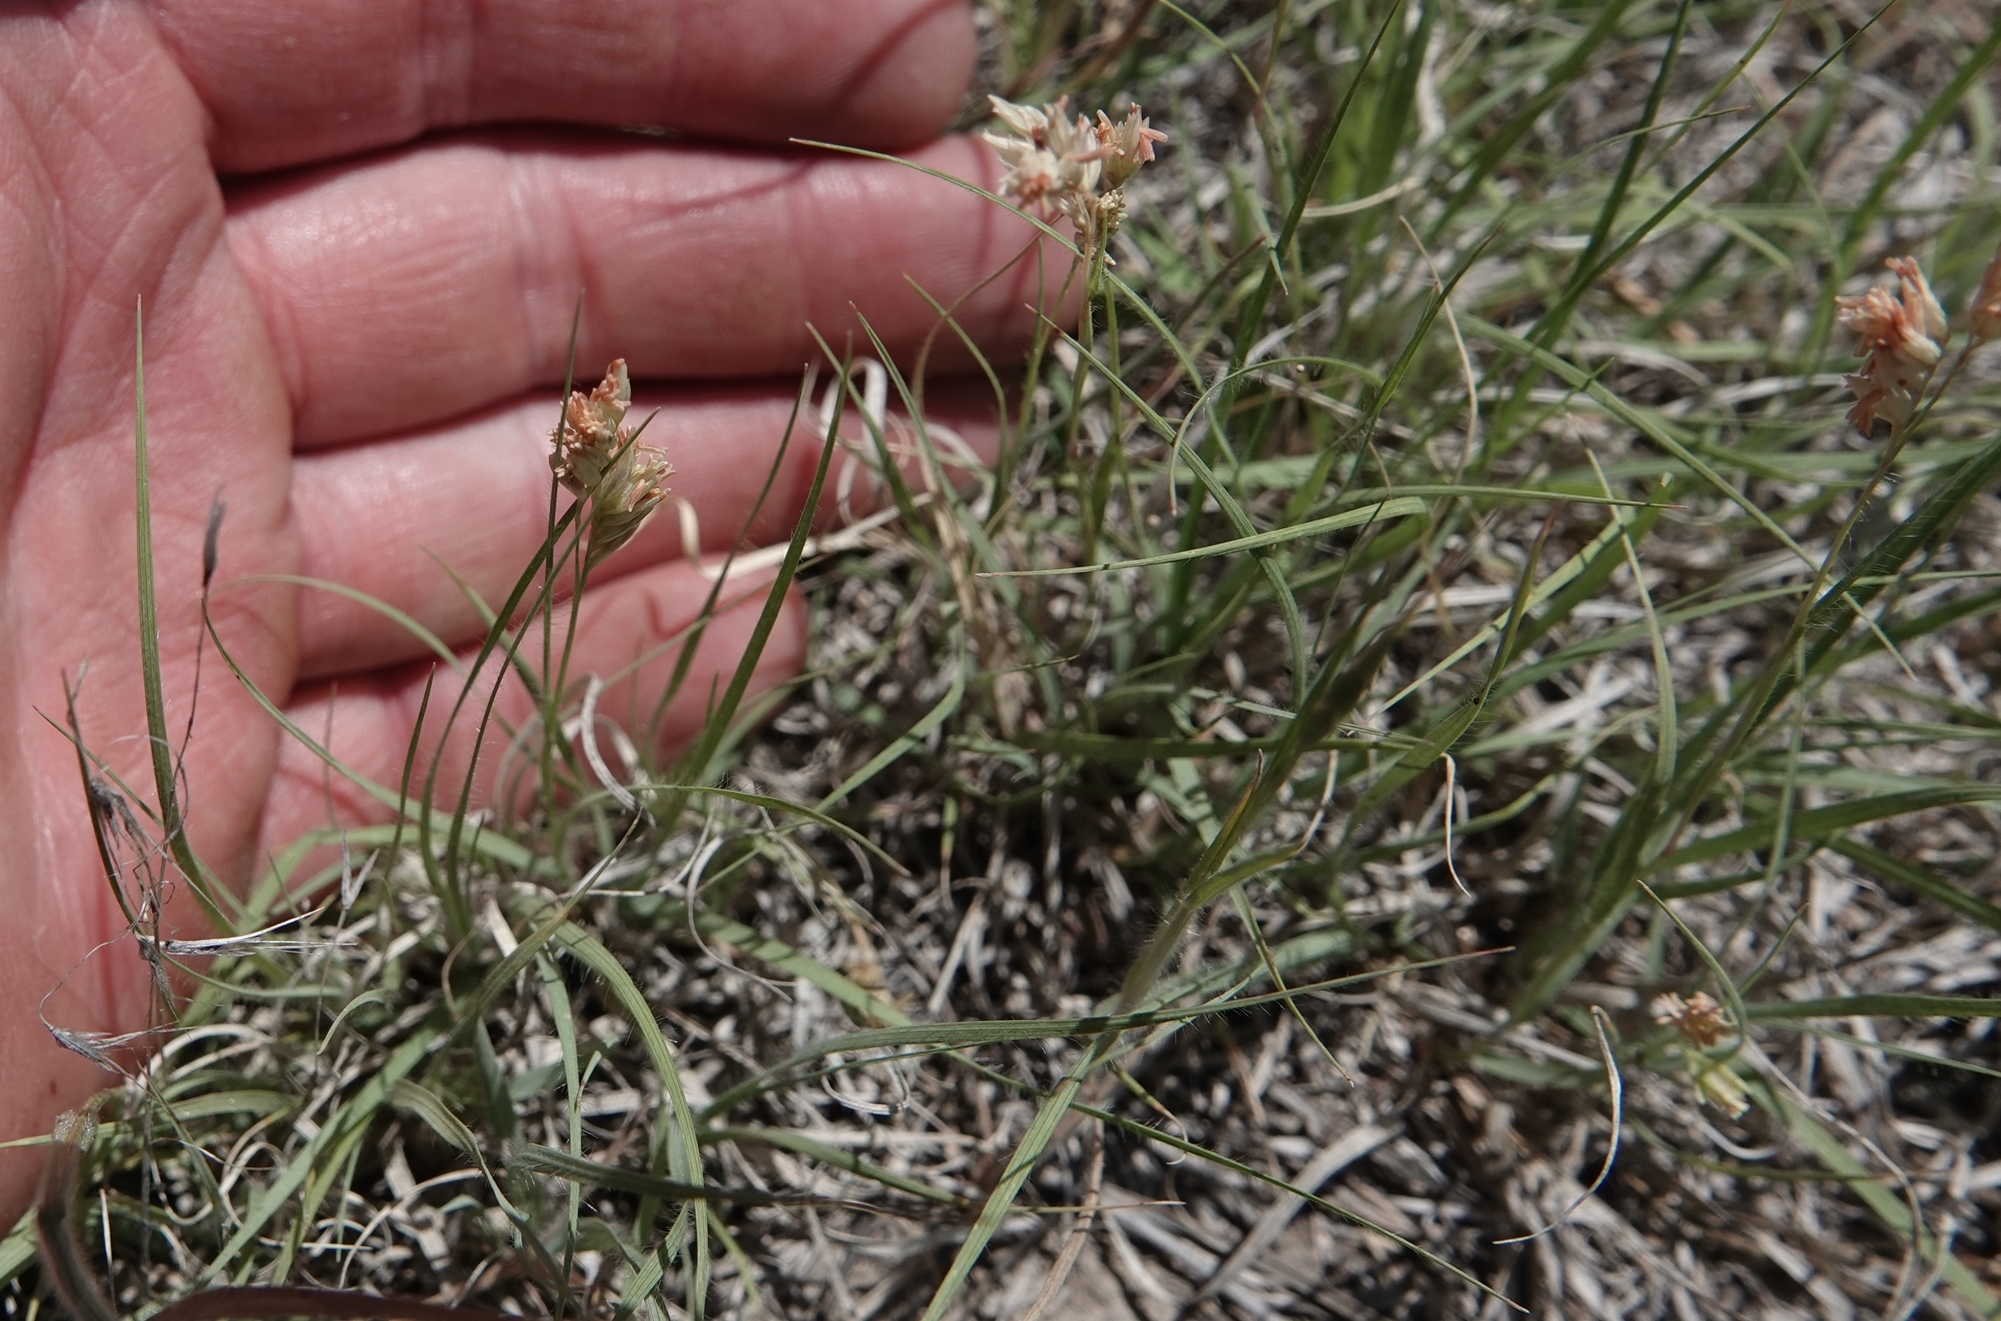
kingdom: Plantae
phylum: Tracheophyta
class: Liliopsida
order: Poales
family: Poaceae
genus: Bouteloua
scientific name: Bouteloua dactyloides
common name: Buffalo grass
